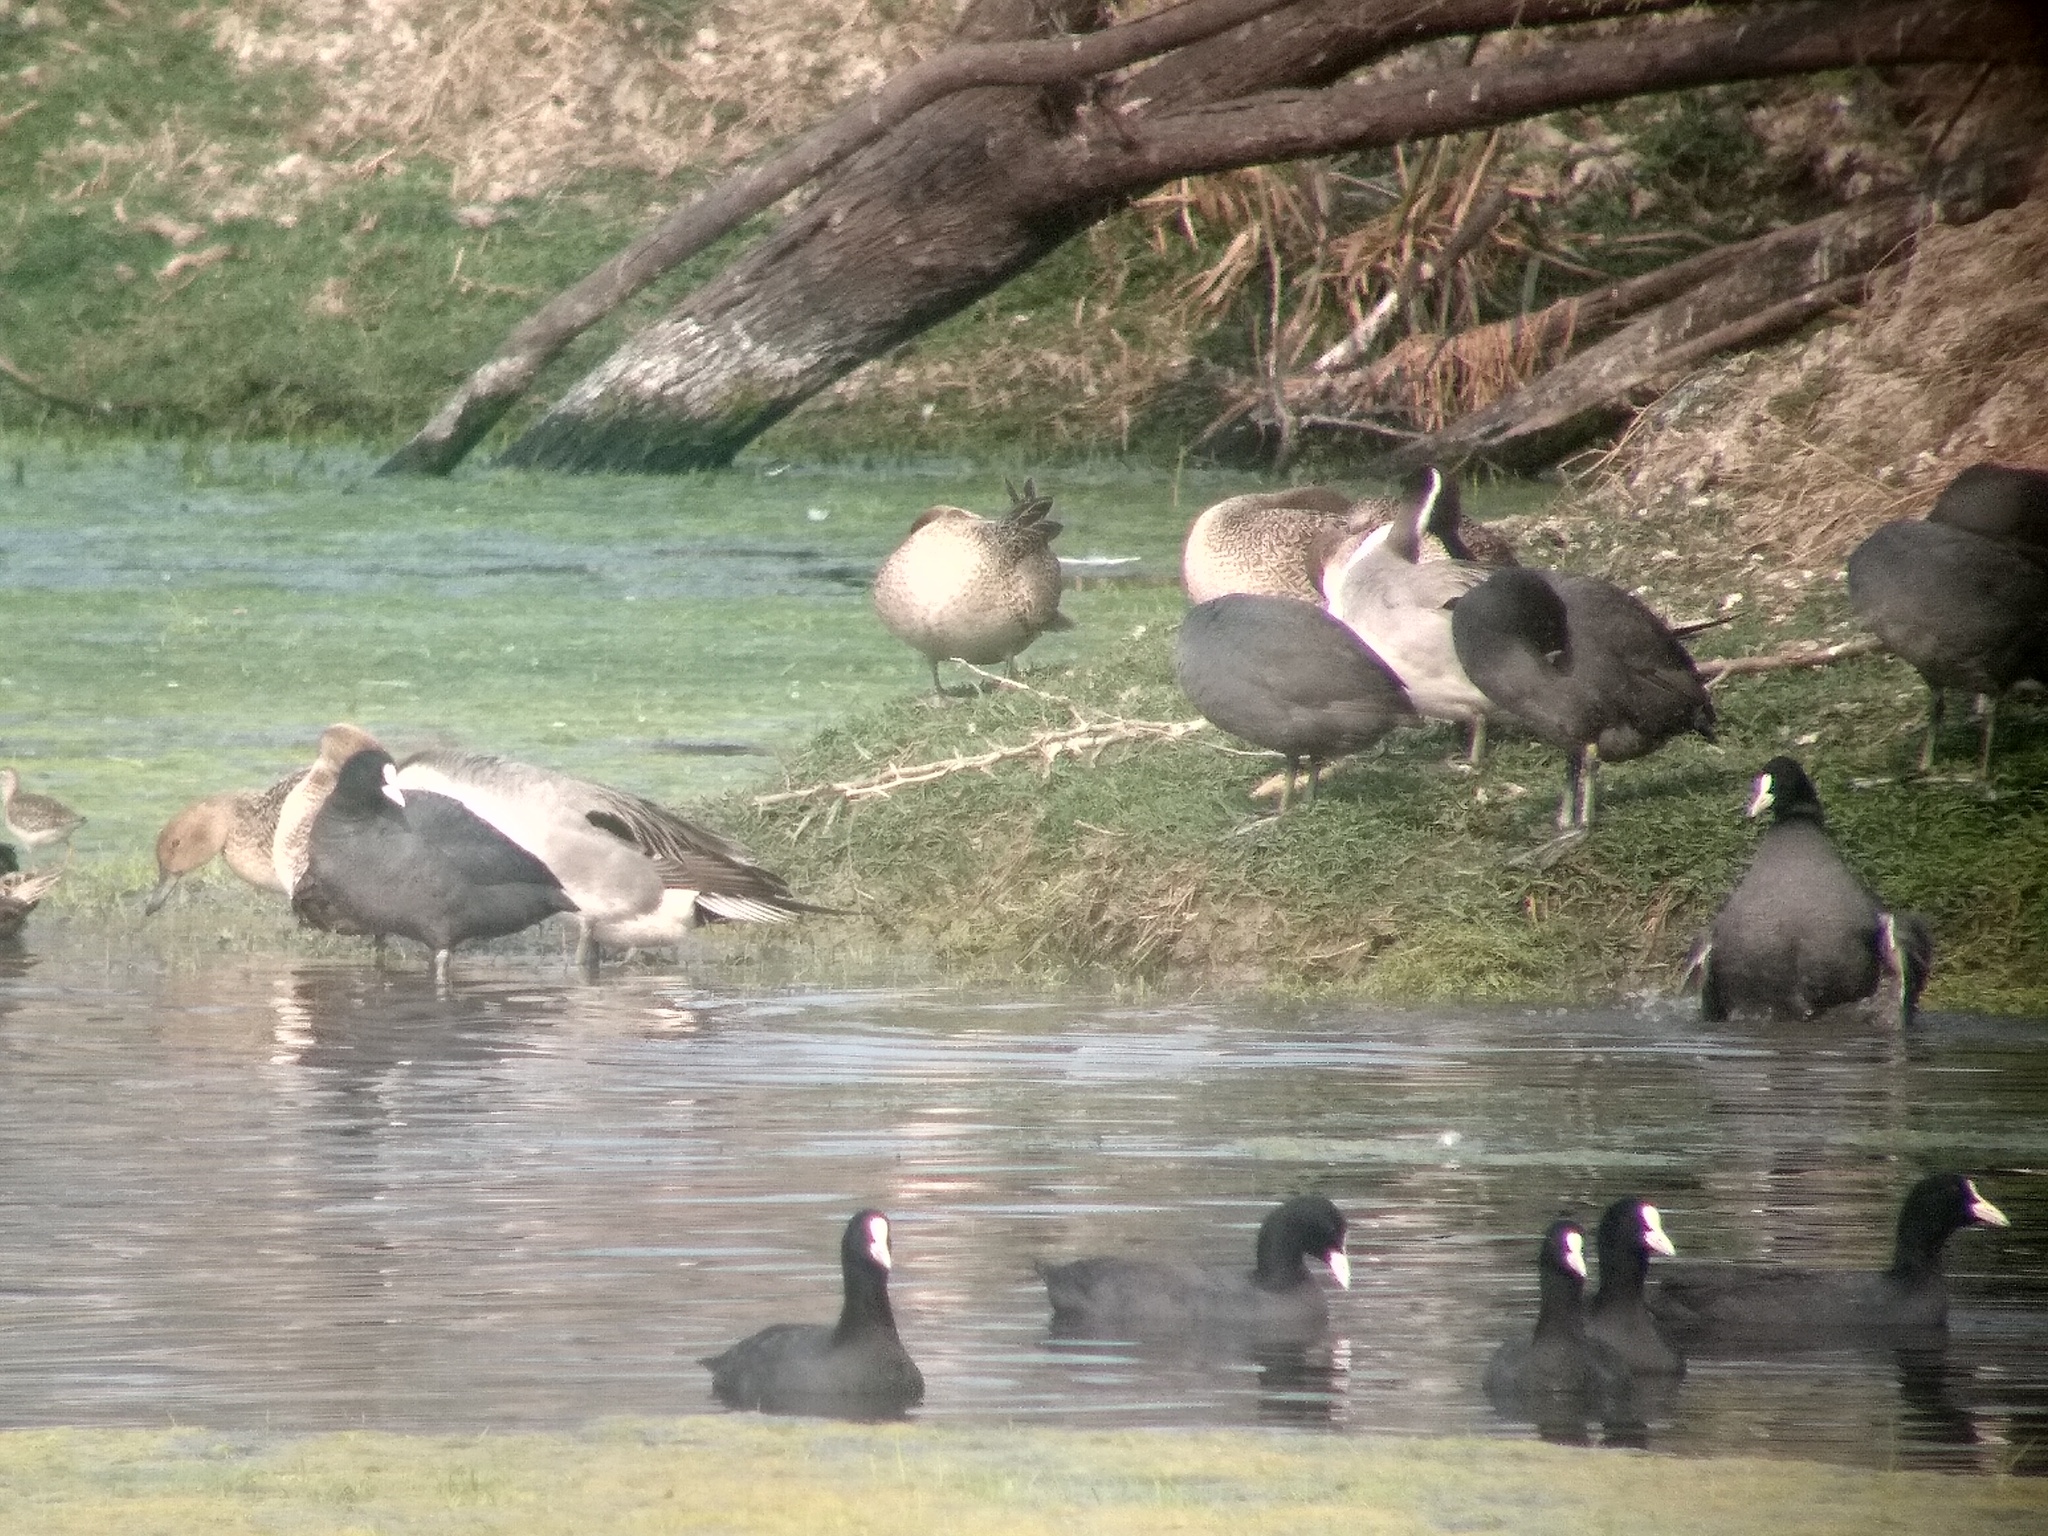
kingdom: Animalia
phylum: Chordata
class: Aves
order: Gruiformes
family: Rallidae
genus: Fulica
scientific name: Fulica atra
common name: Eurasian coot
